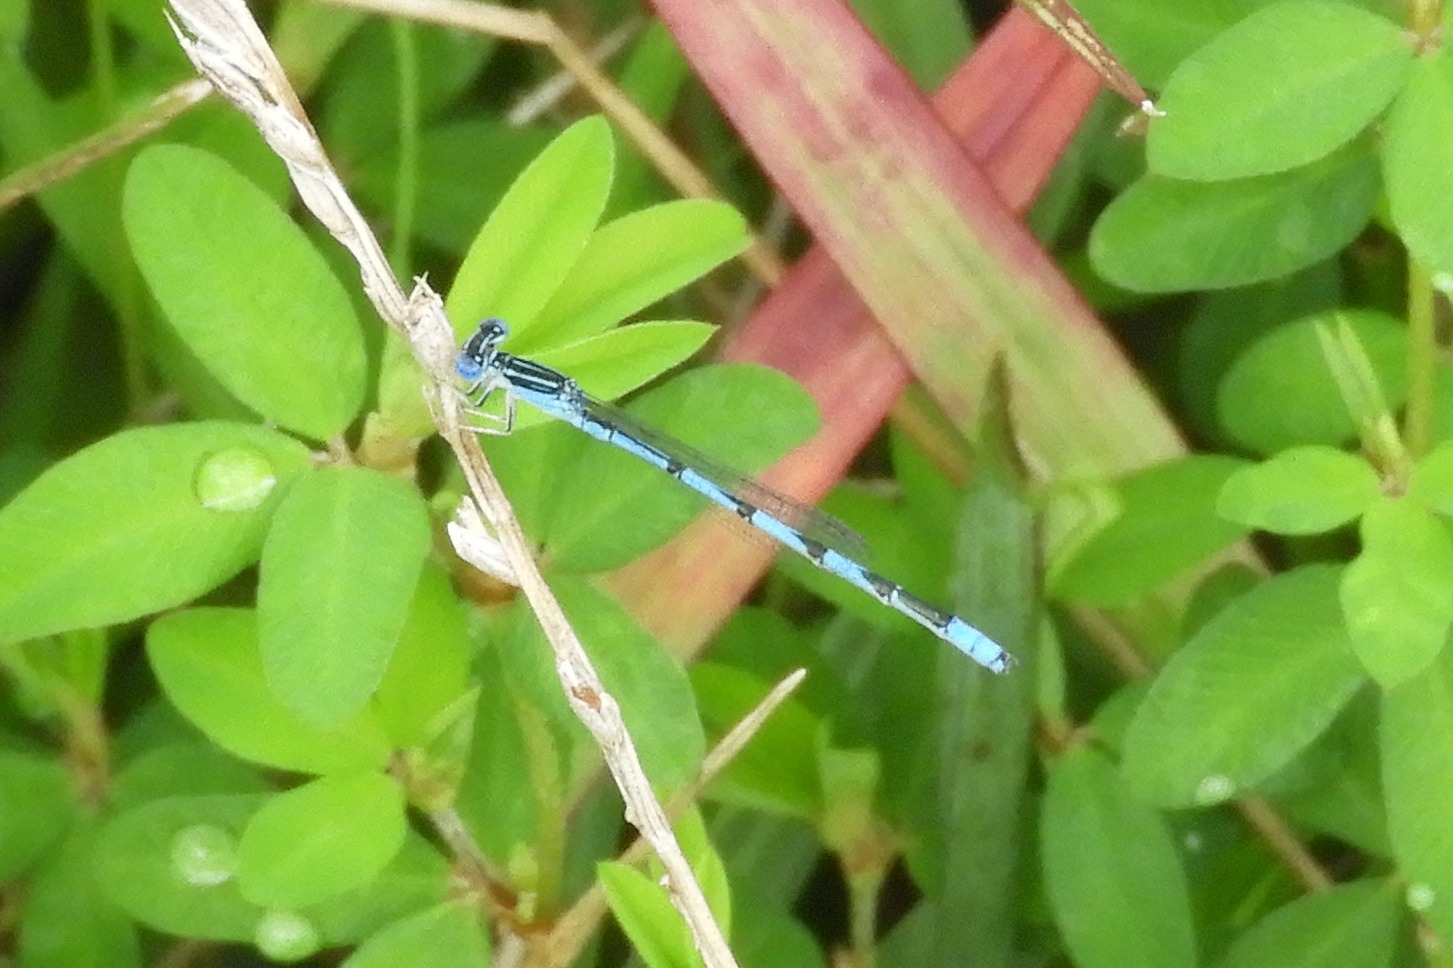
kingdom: Animalia
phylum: Arthropoda
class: Insecta
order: Odonata
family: Coenagrionidae
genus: Enallagma
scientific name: Enallagma basidens
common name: Double-striped bluet
